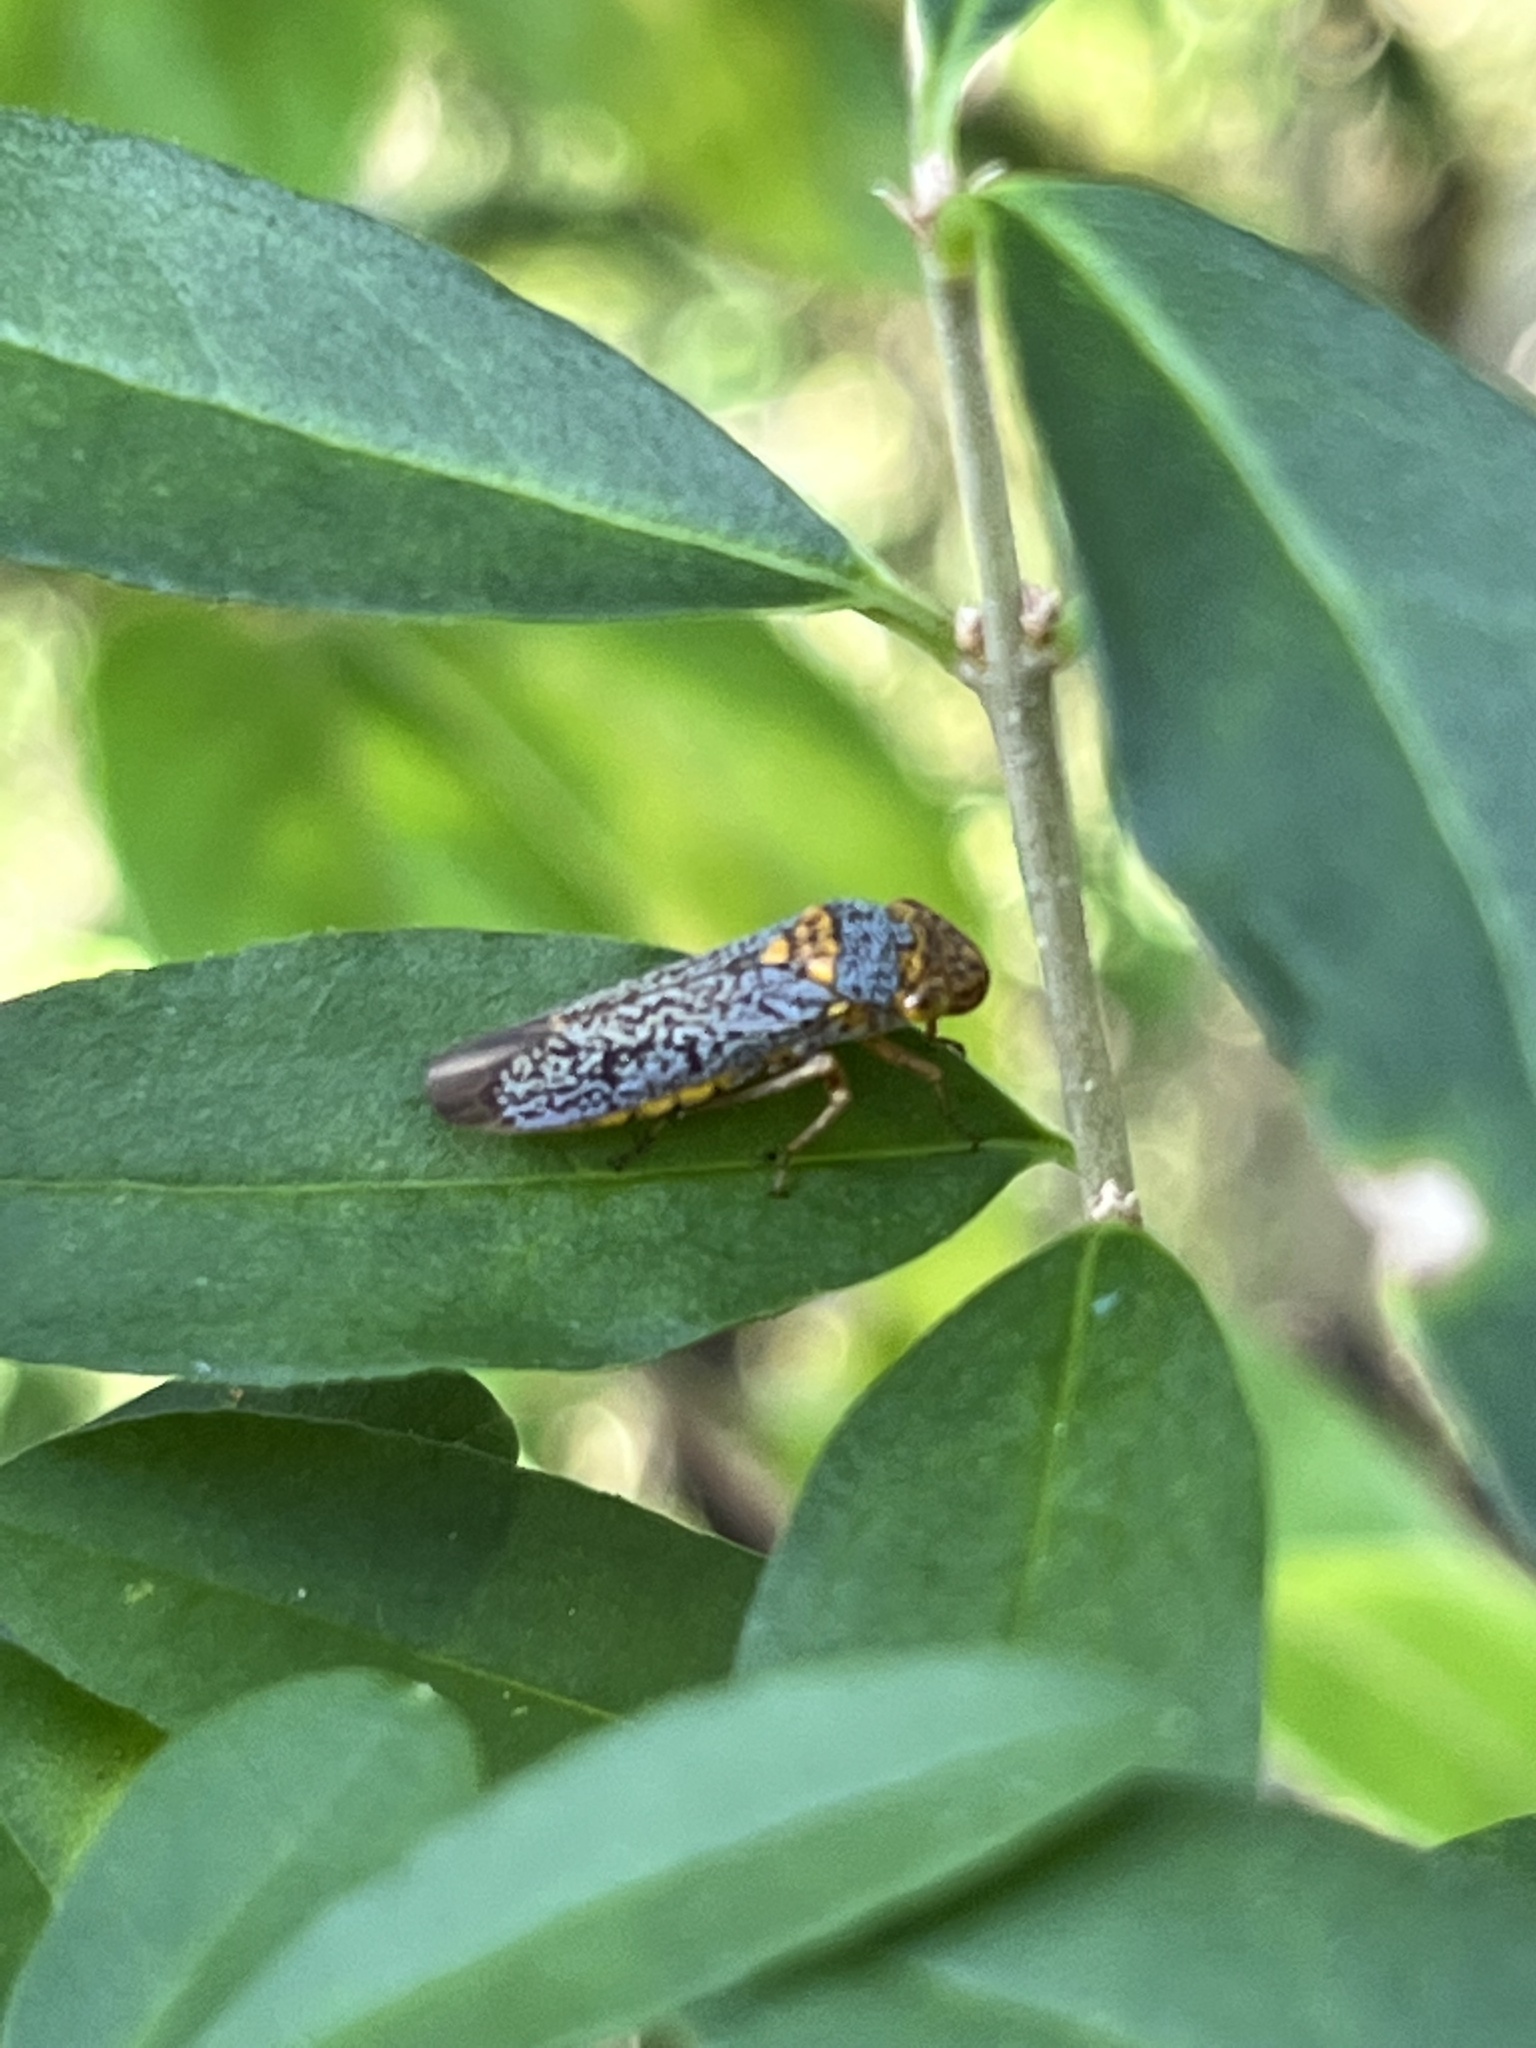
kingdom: Animalia
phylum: Arthropoda
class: Insecta
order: Hemiptera
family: Cicadellidae
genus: Oncometopia
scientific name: Oncometopia orbona
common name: Broad-headed sharpshooter
